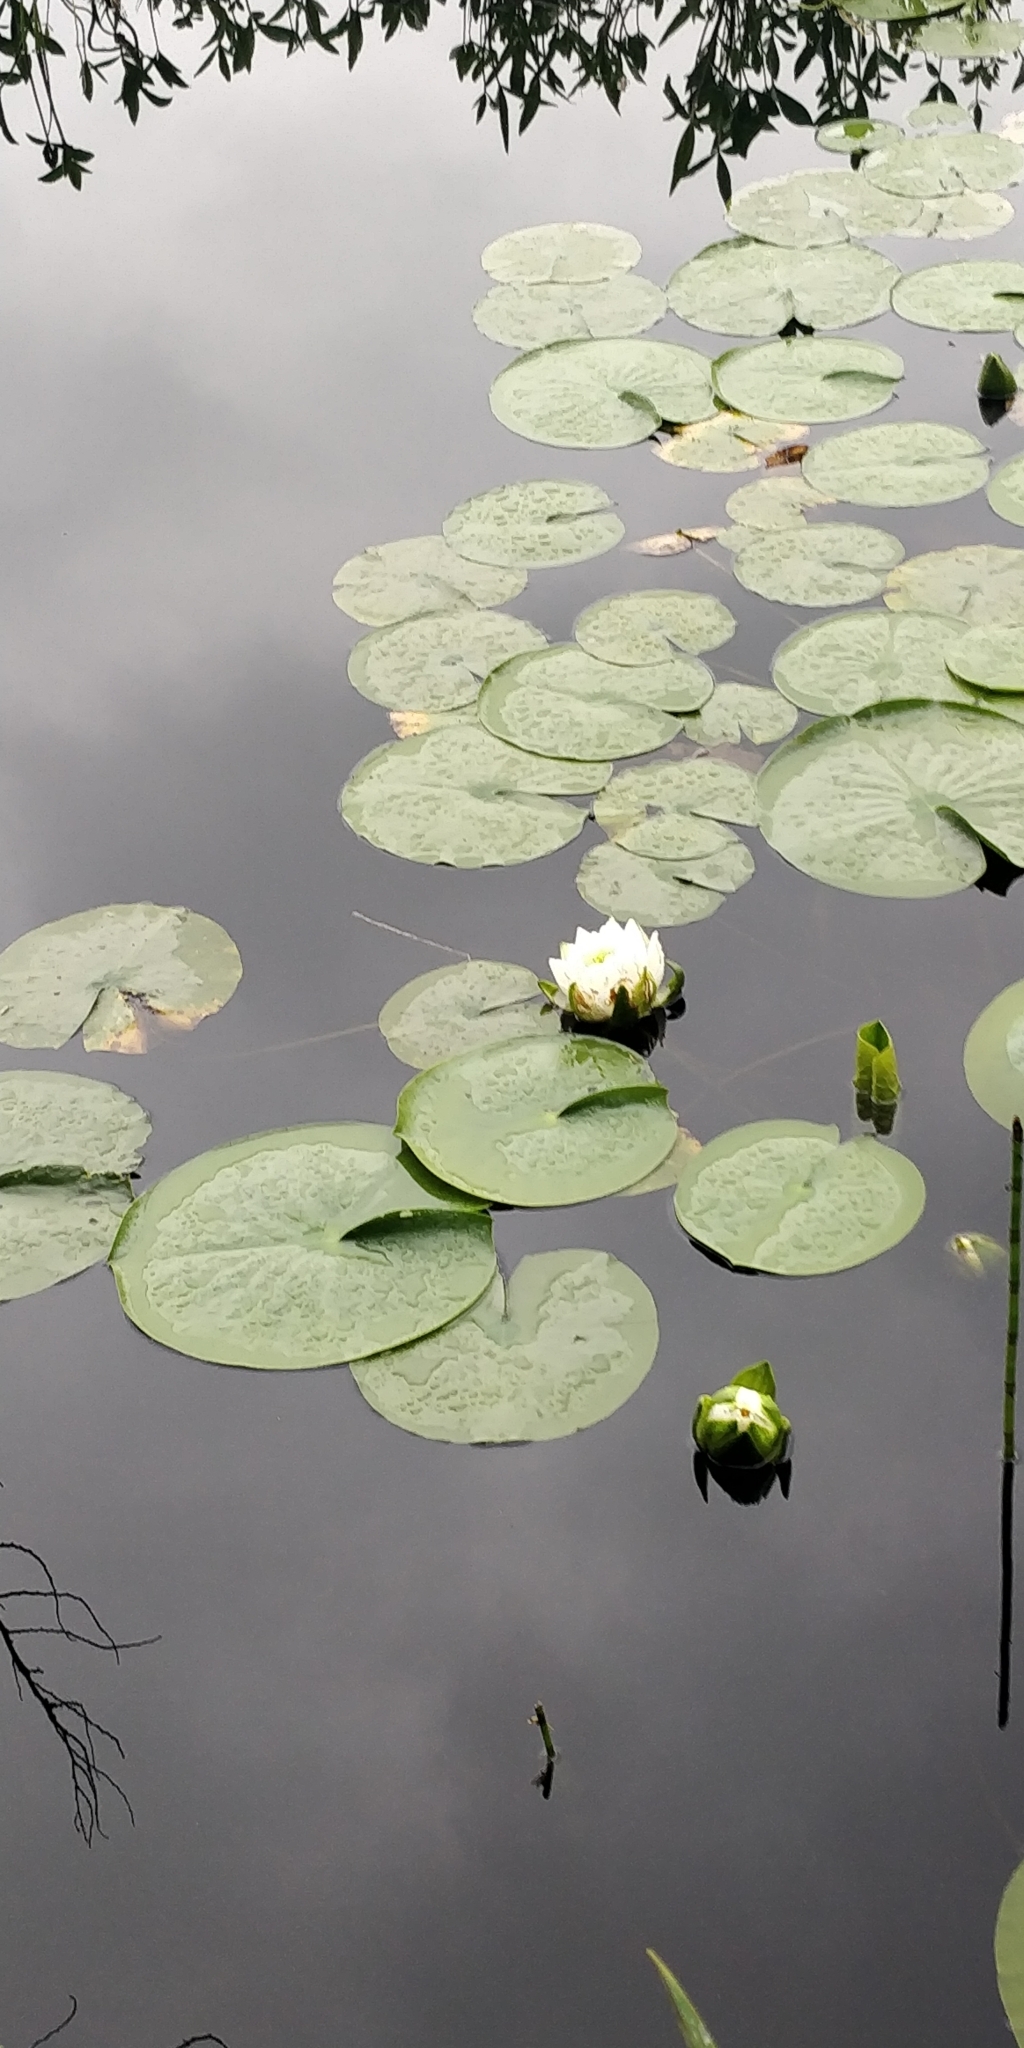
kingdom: Plantae
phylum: Tracheophyta
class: Magnoliopsida
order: Nymphaeales
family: Nymphaeaceae
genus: Nymphaea
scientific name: Nymphaea odorata
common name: Fragrant water-lily
